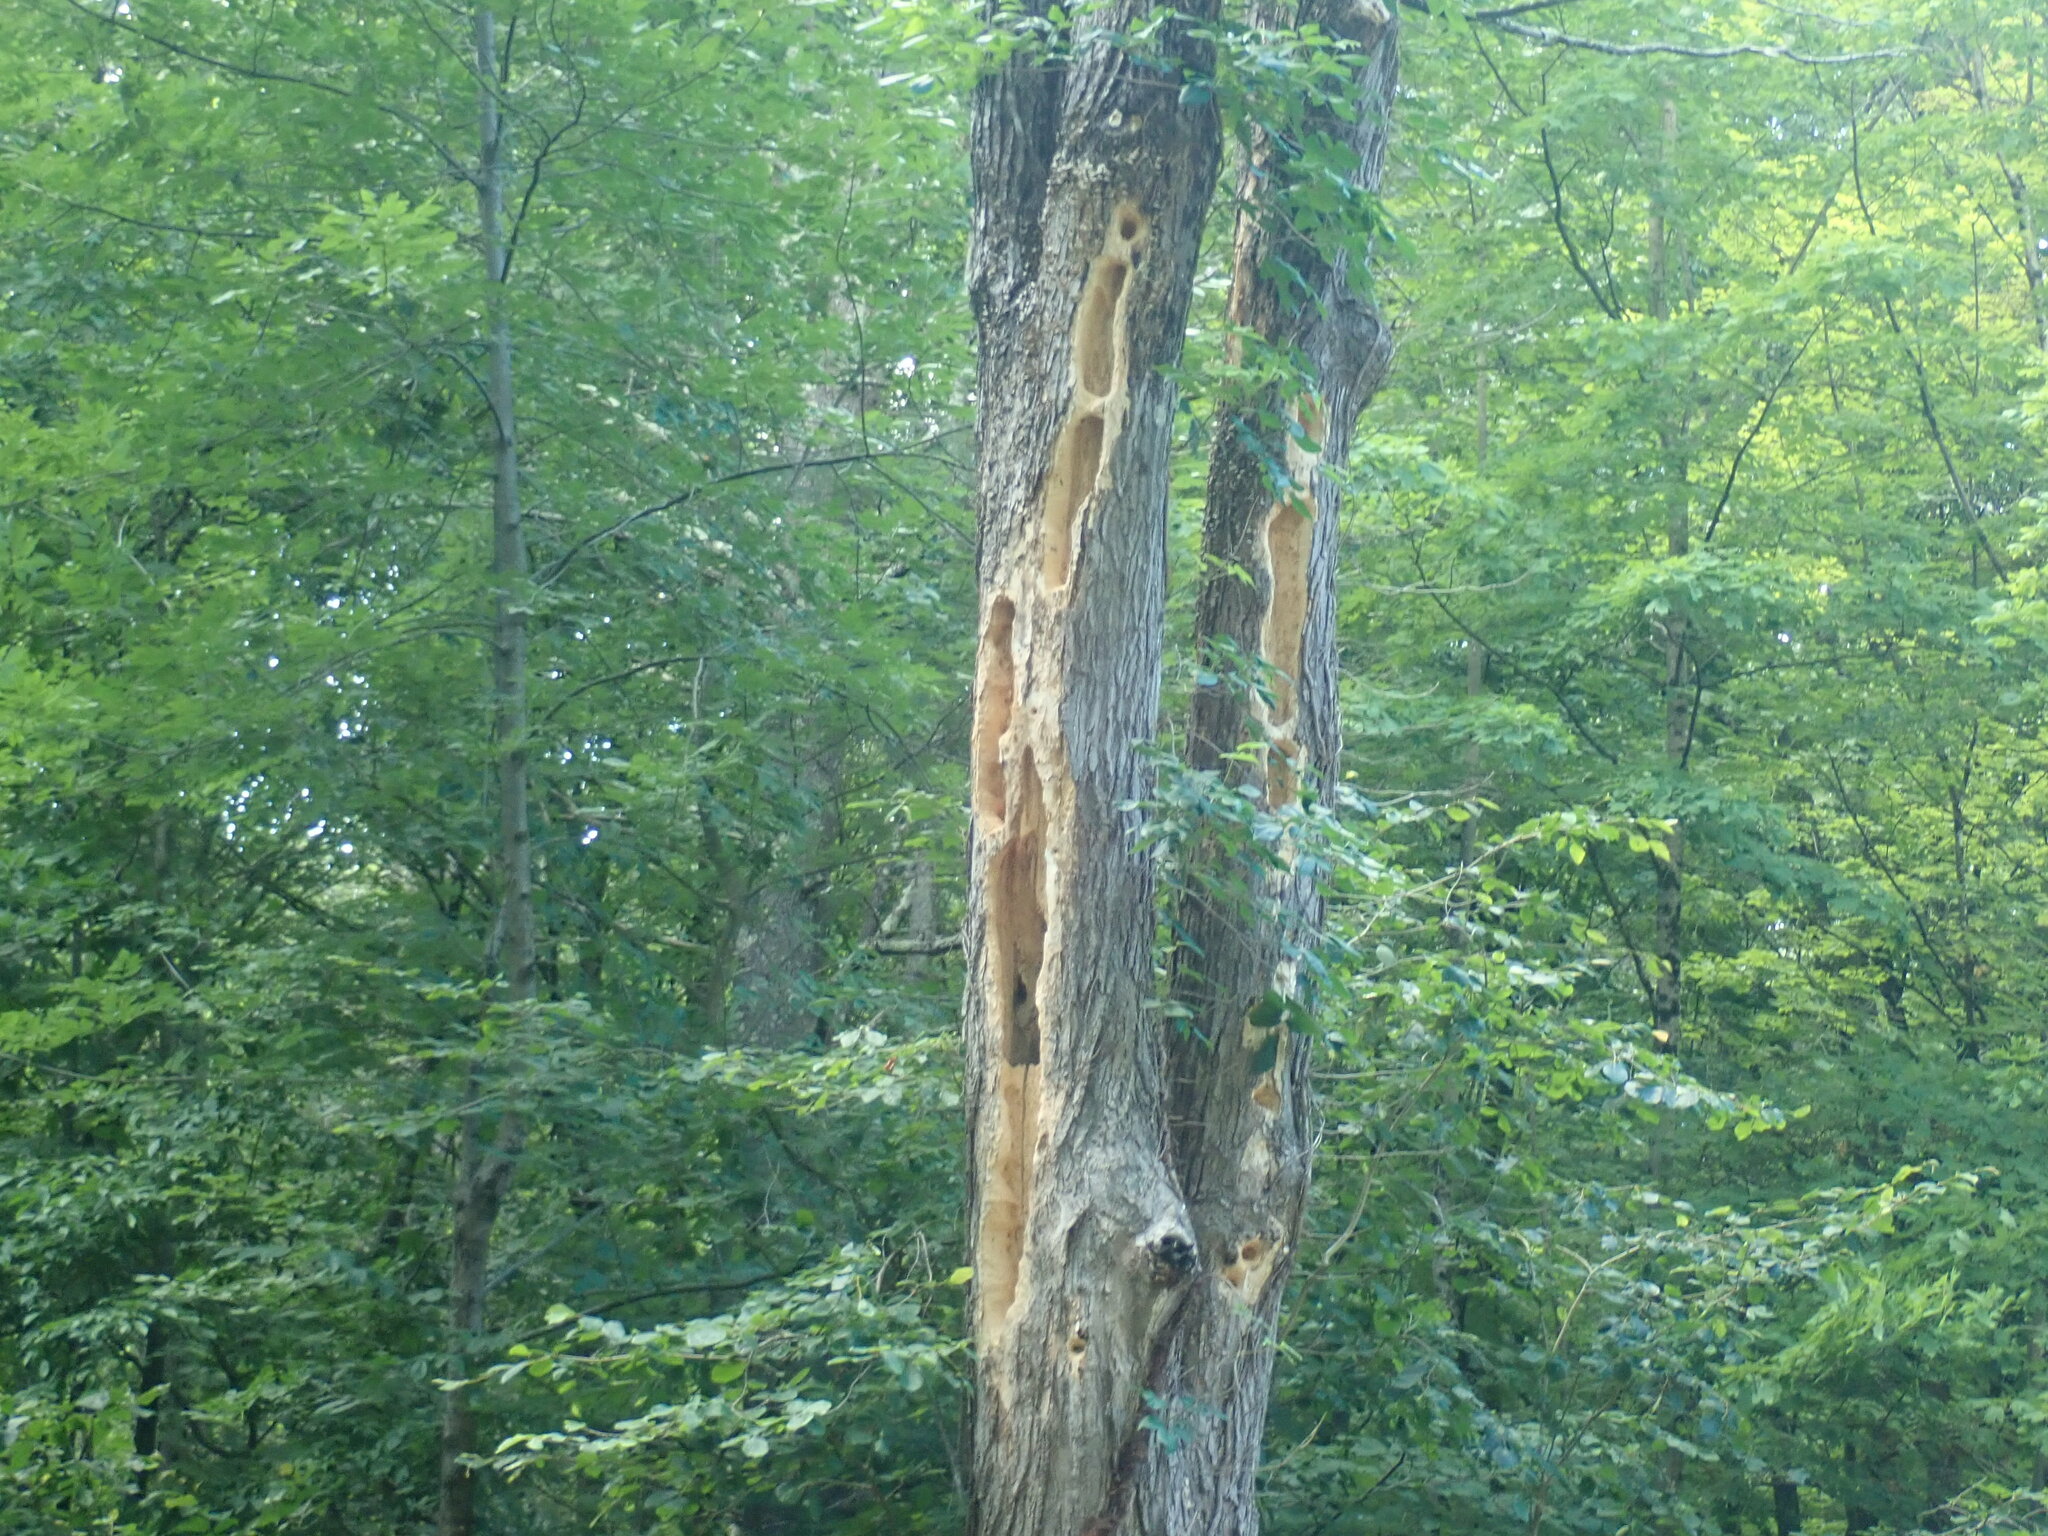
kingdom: Animalia
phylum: Chordata
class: Aves
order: Piciformes
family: Picidae
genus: Dryocopus
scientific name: Dryocopus pileatus
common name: Pileated woodpecker
